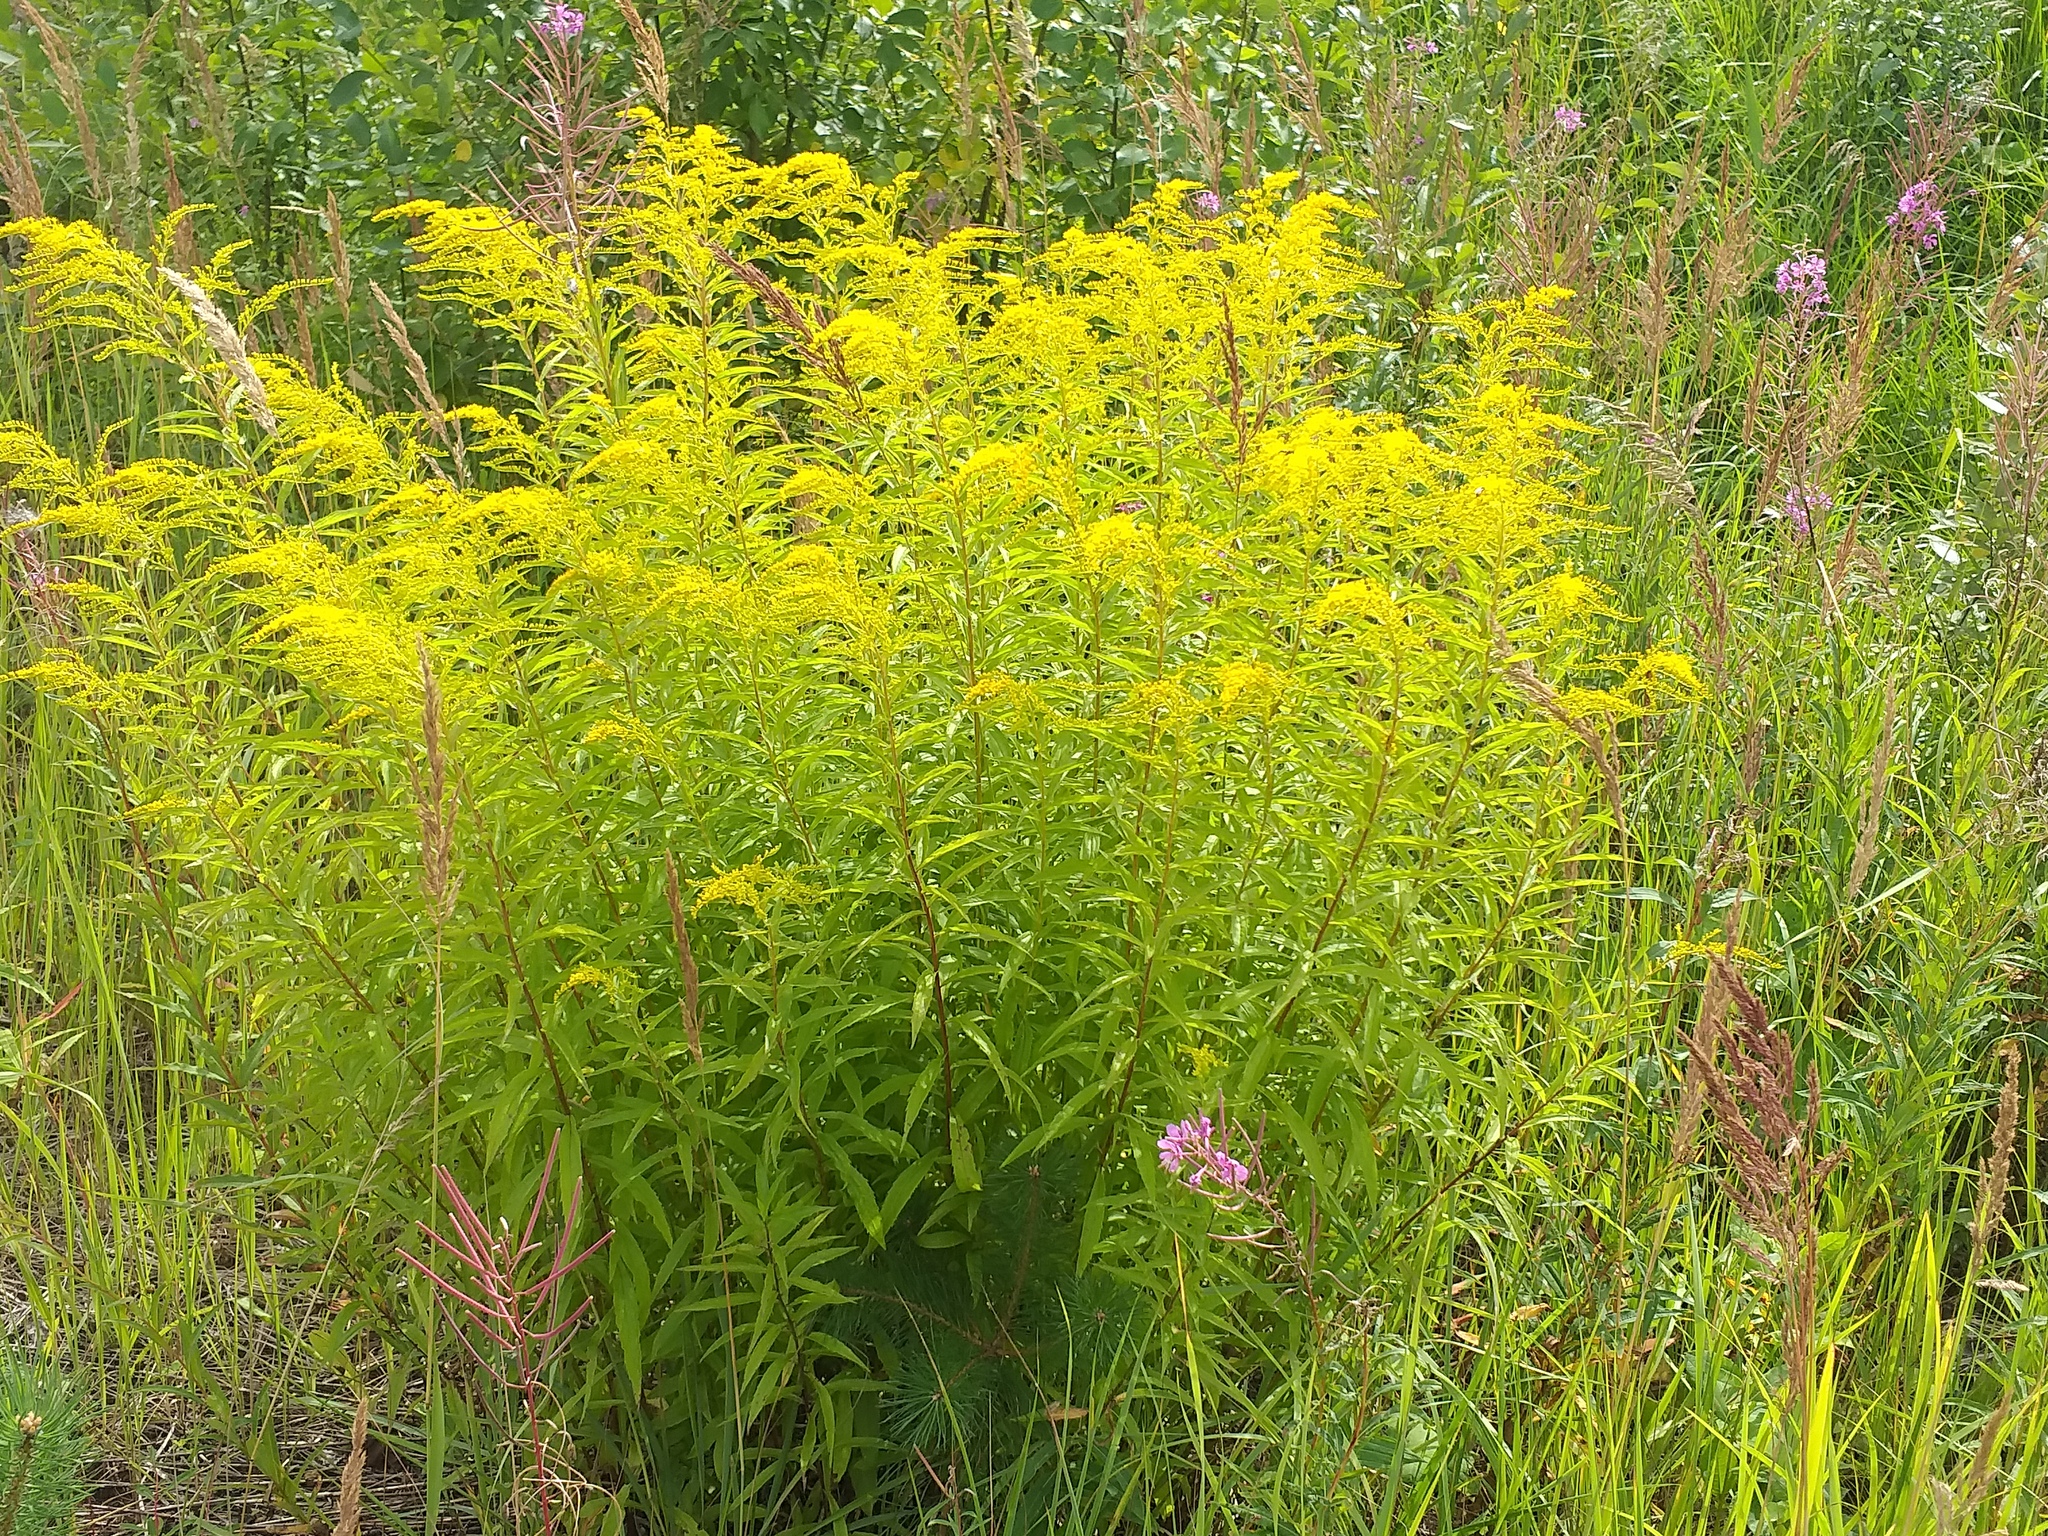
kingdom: Plantae
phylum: Tracheophyta
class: Magnoliopsida
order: Asterales
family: Asteraceae
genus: Solidago
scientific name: Solidago canadensis
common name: Canada goldenrod
